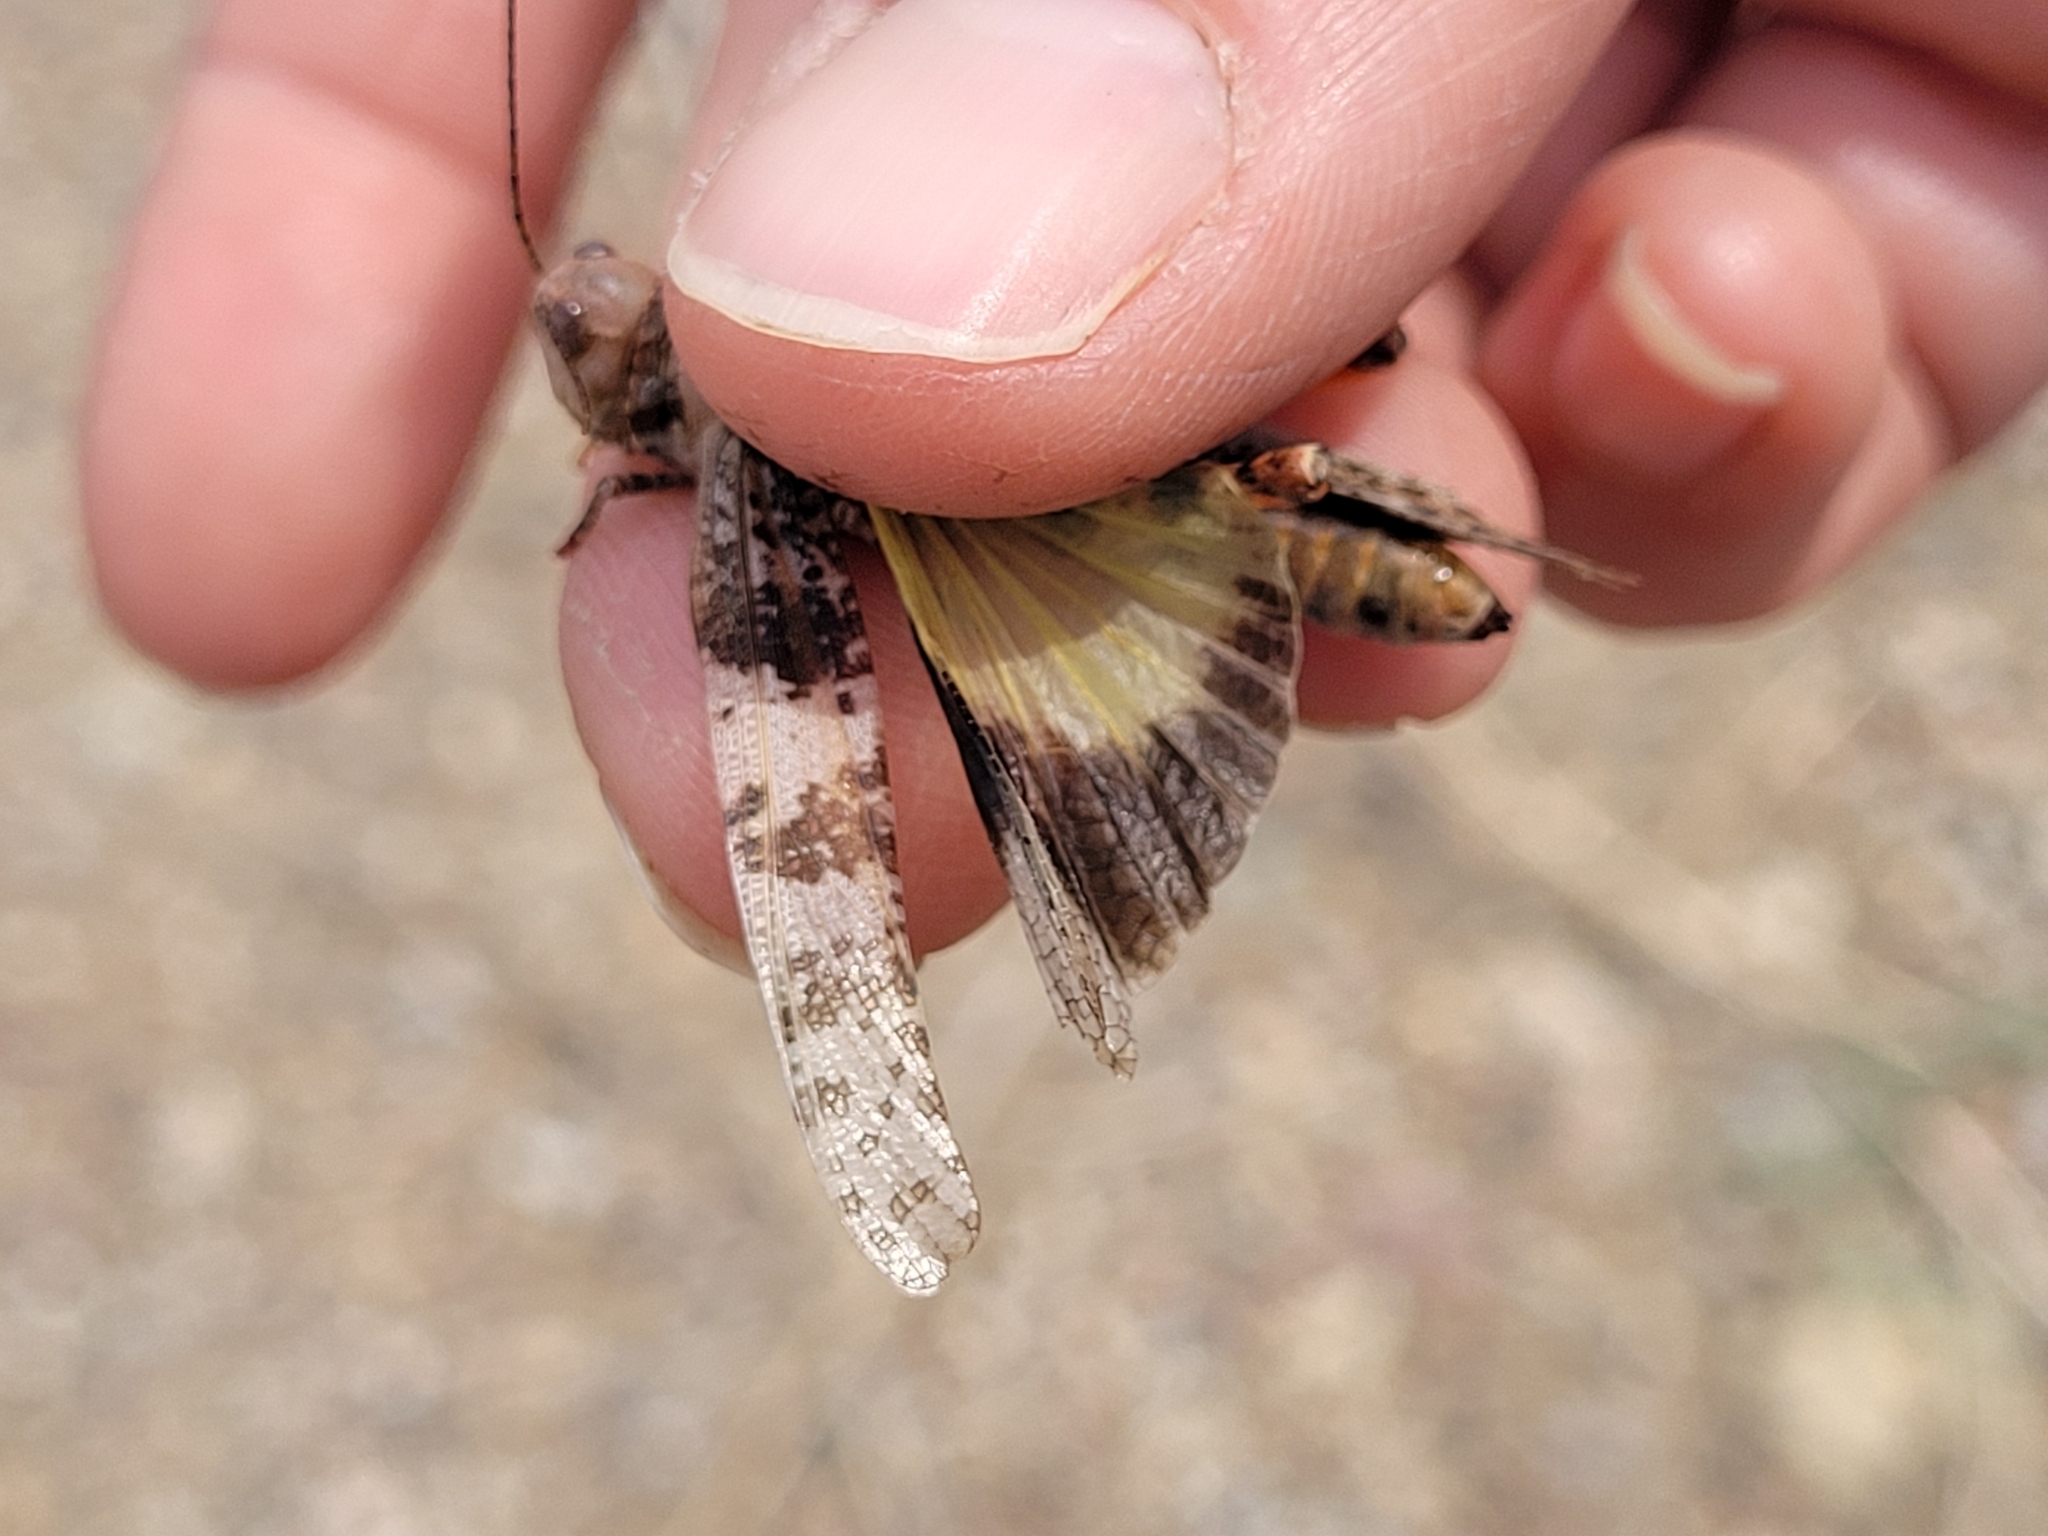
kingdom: Animalia
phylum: Arthropoda
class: Insecta
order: Orthoptera
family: Acrididae
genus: Trimerotropis
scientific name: Trimerotropis salina
